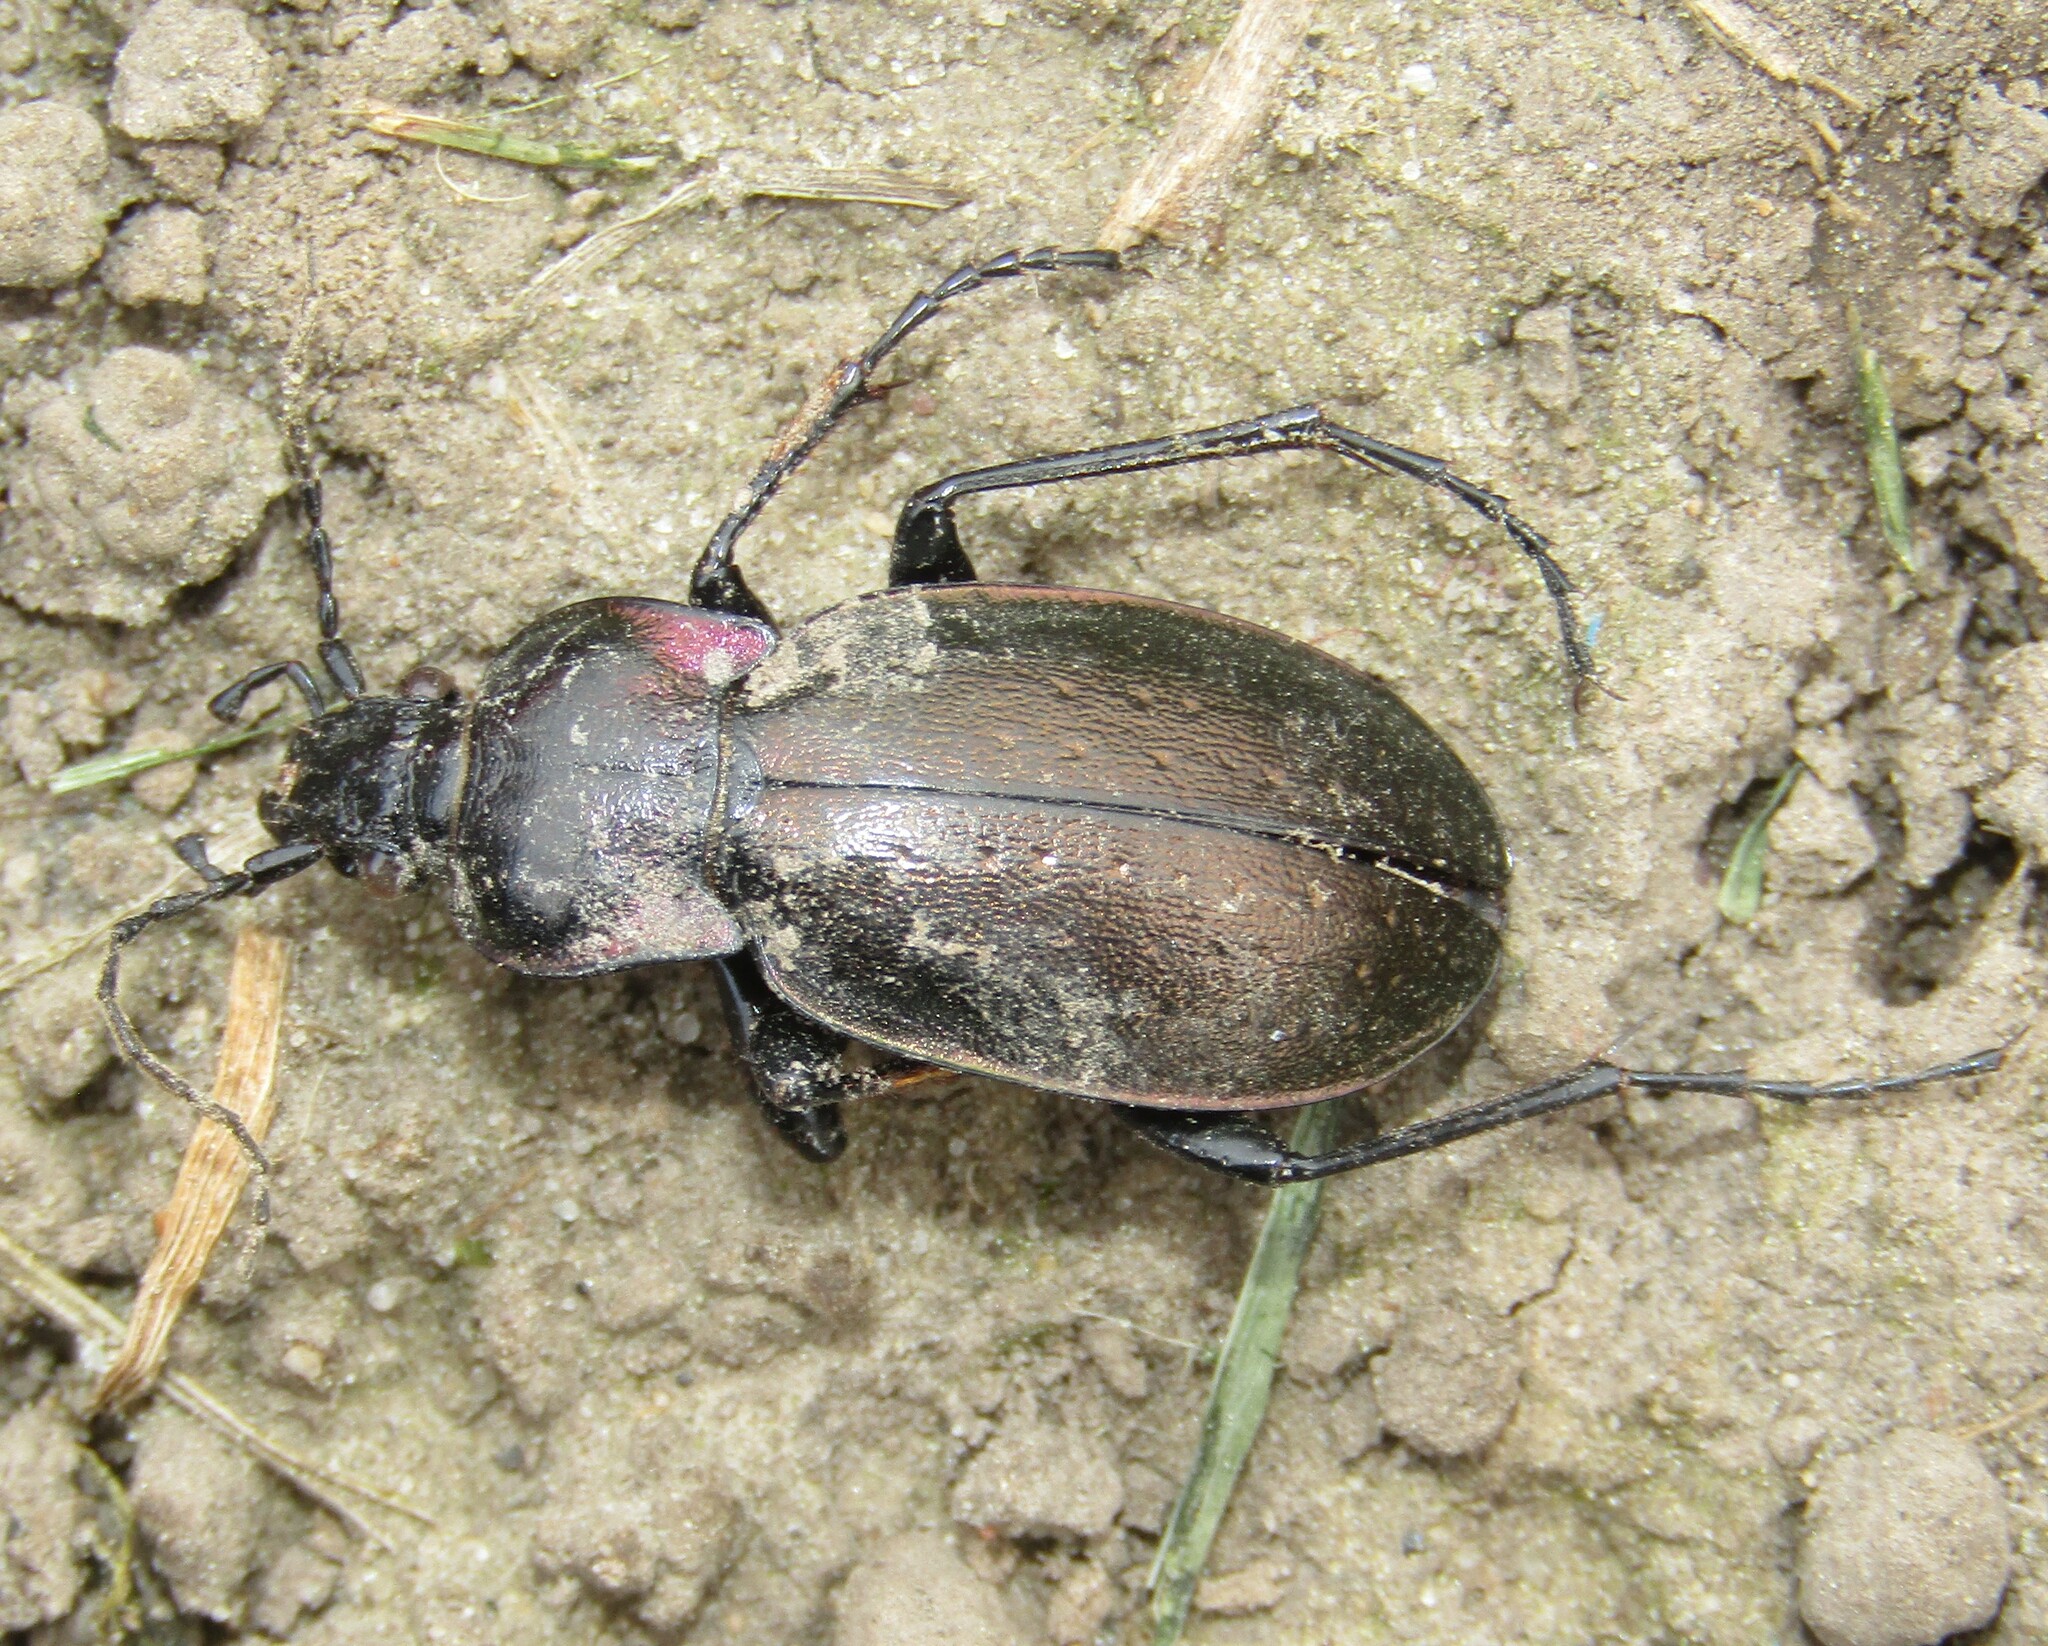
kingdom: Animalia
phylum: Arthropoda
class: Insecta
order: Coleoptera
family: Carabidae
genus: Carabus
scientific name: Carabus nemoralis
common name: European ground beetle
